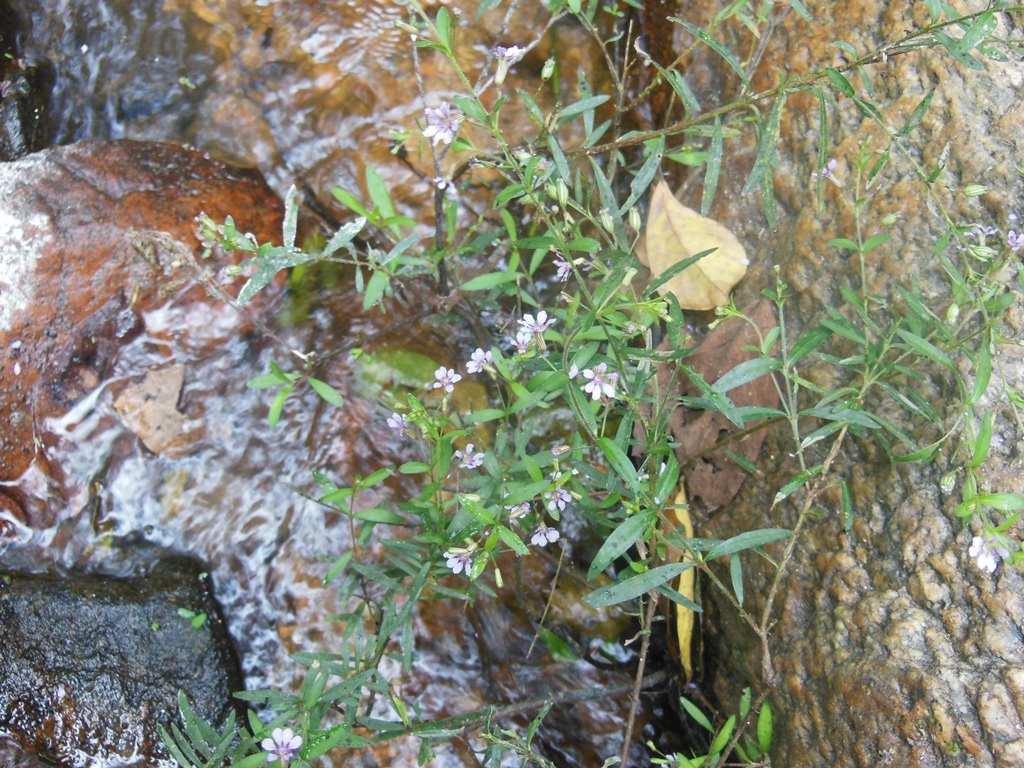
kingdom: Plantae
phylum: Tracheophyta
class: Magnoliopsida
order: Myrtales
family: Lythraceae
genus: Cuphea
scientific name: Cuphea utriculosa
